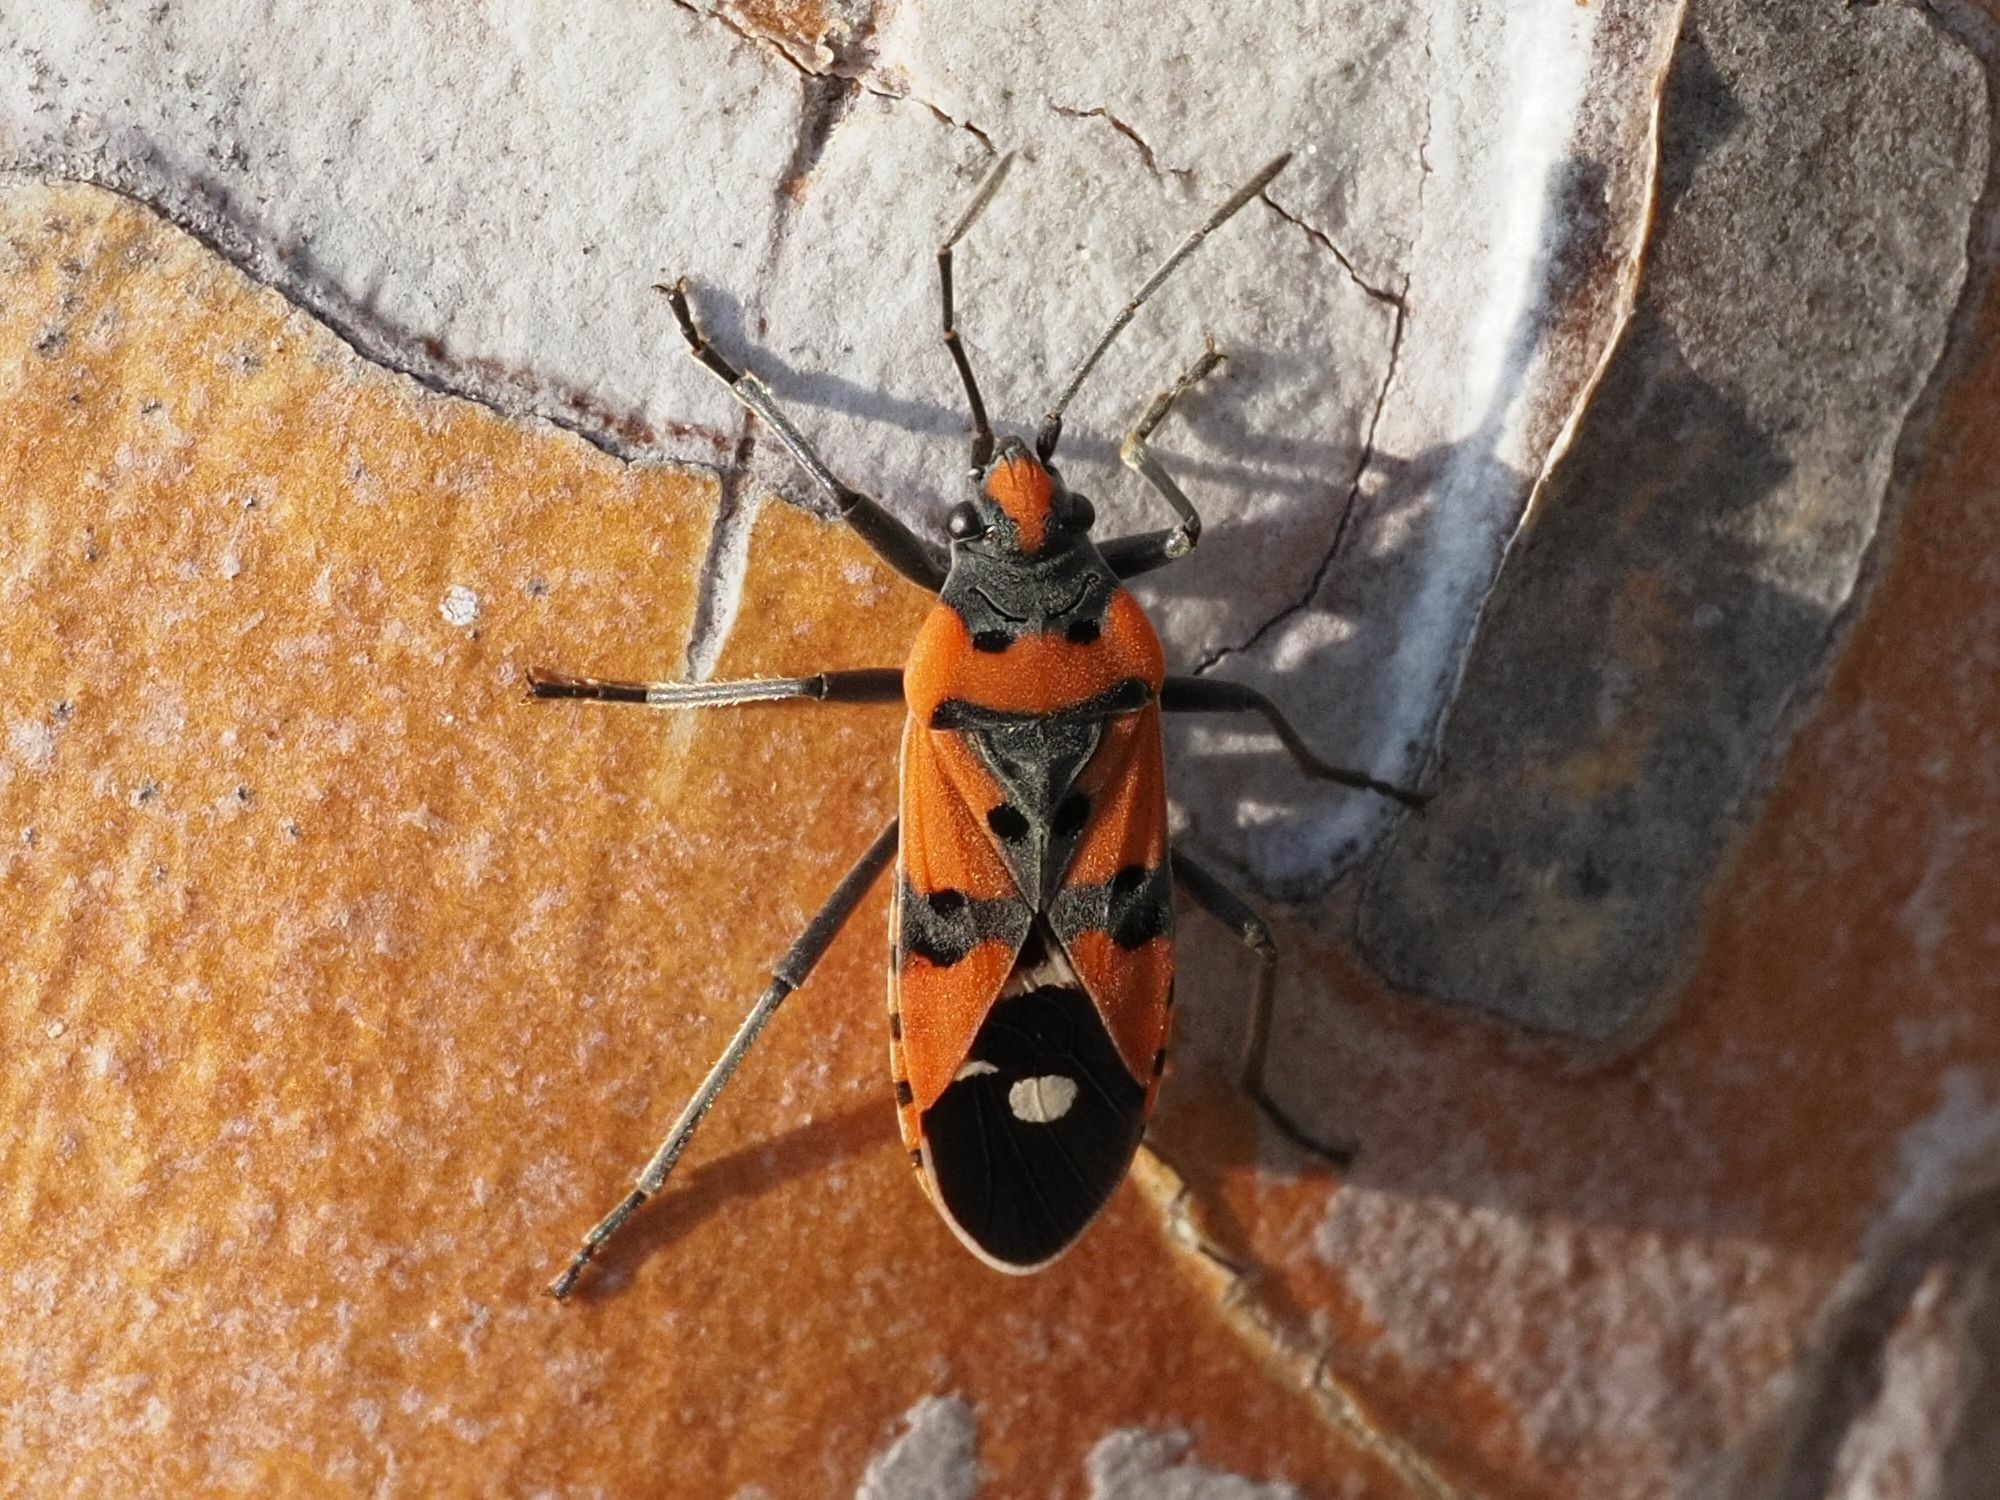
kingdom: Animalia
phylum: Arthropoda
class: Insecta
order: Hemiptera
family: Lygaeidae
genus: Lygaeus
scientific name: Lygaeus equestris
